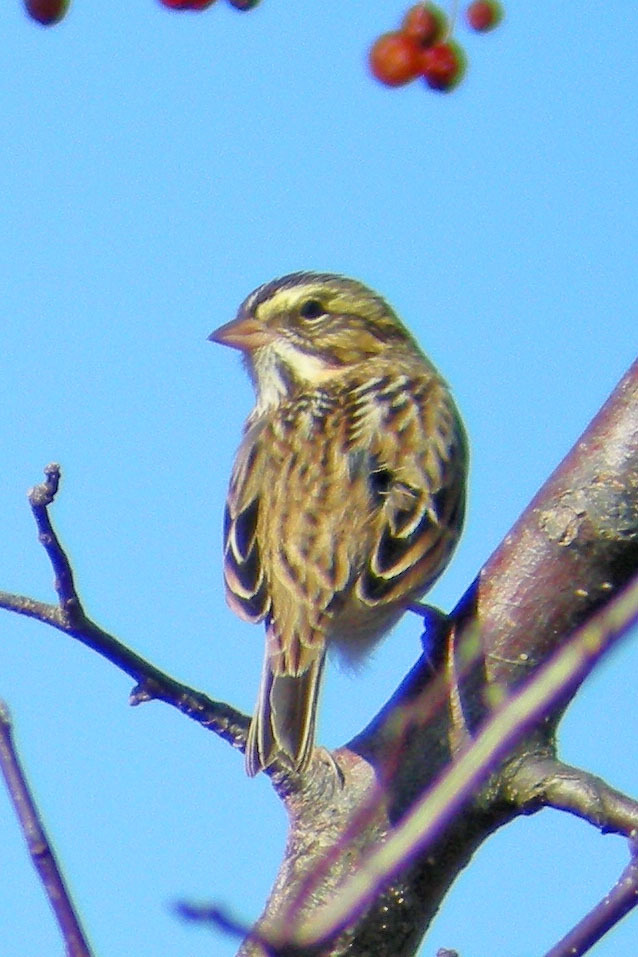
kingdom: Animalia
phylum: Chordata
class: Aves
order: Passeriformes
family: Passerellidae
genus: Passerculus
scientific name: Passerculus sandwichensis
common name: Savannah sparrow
